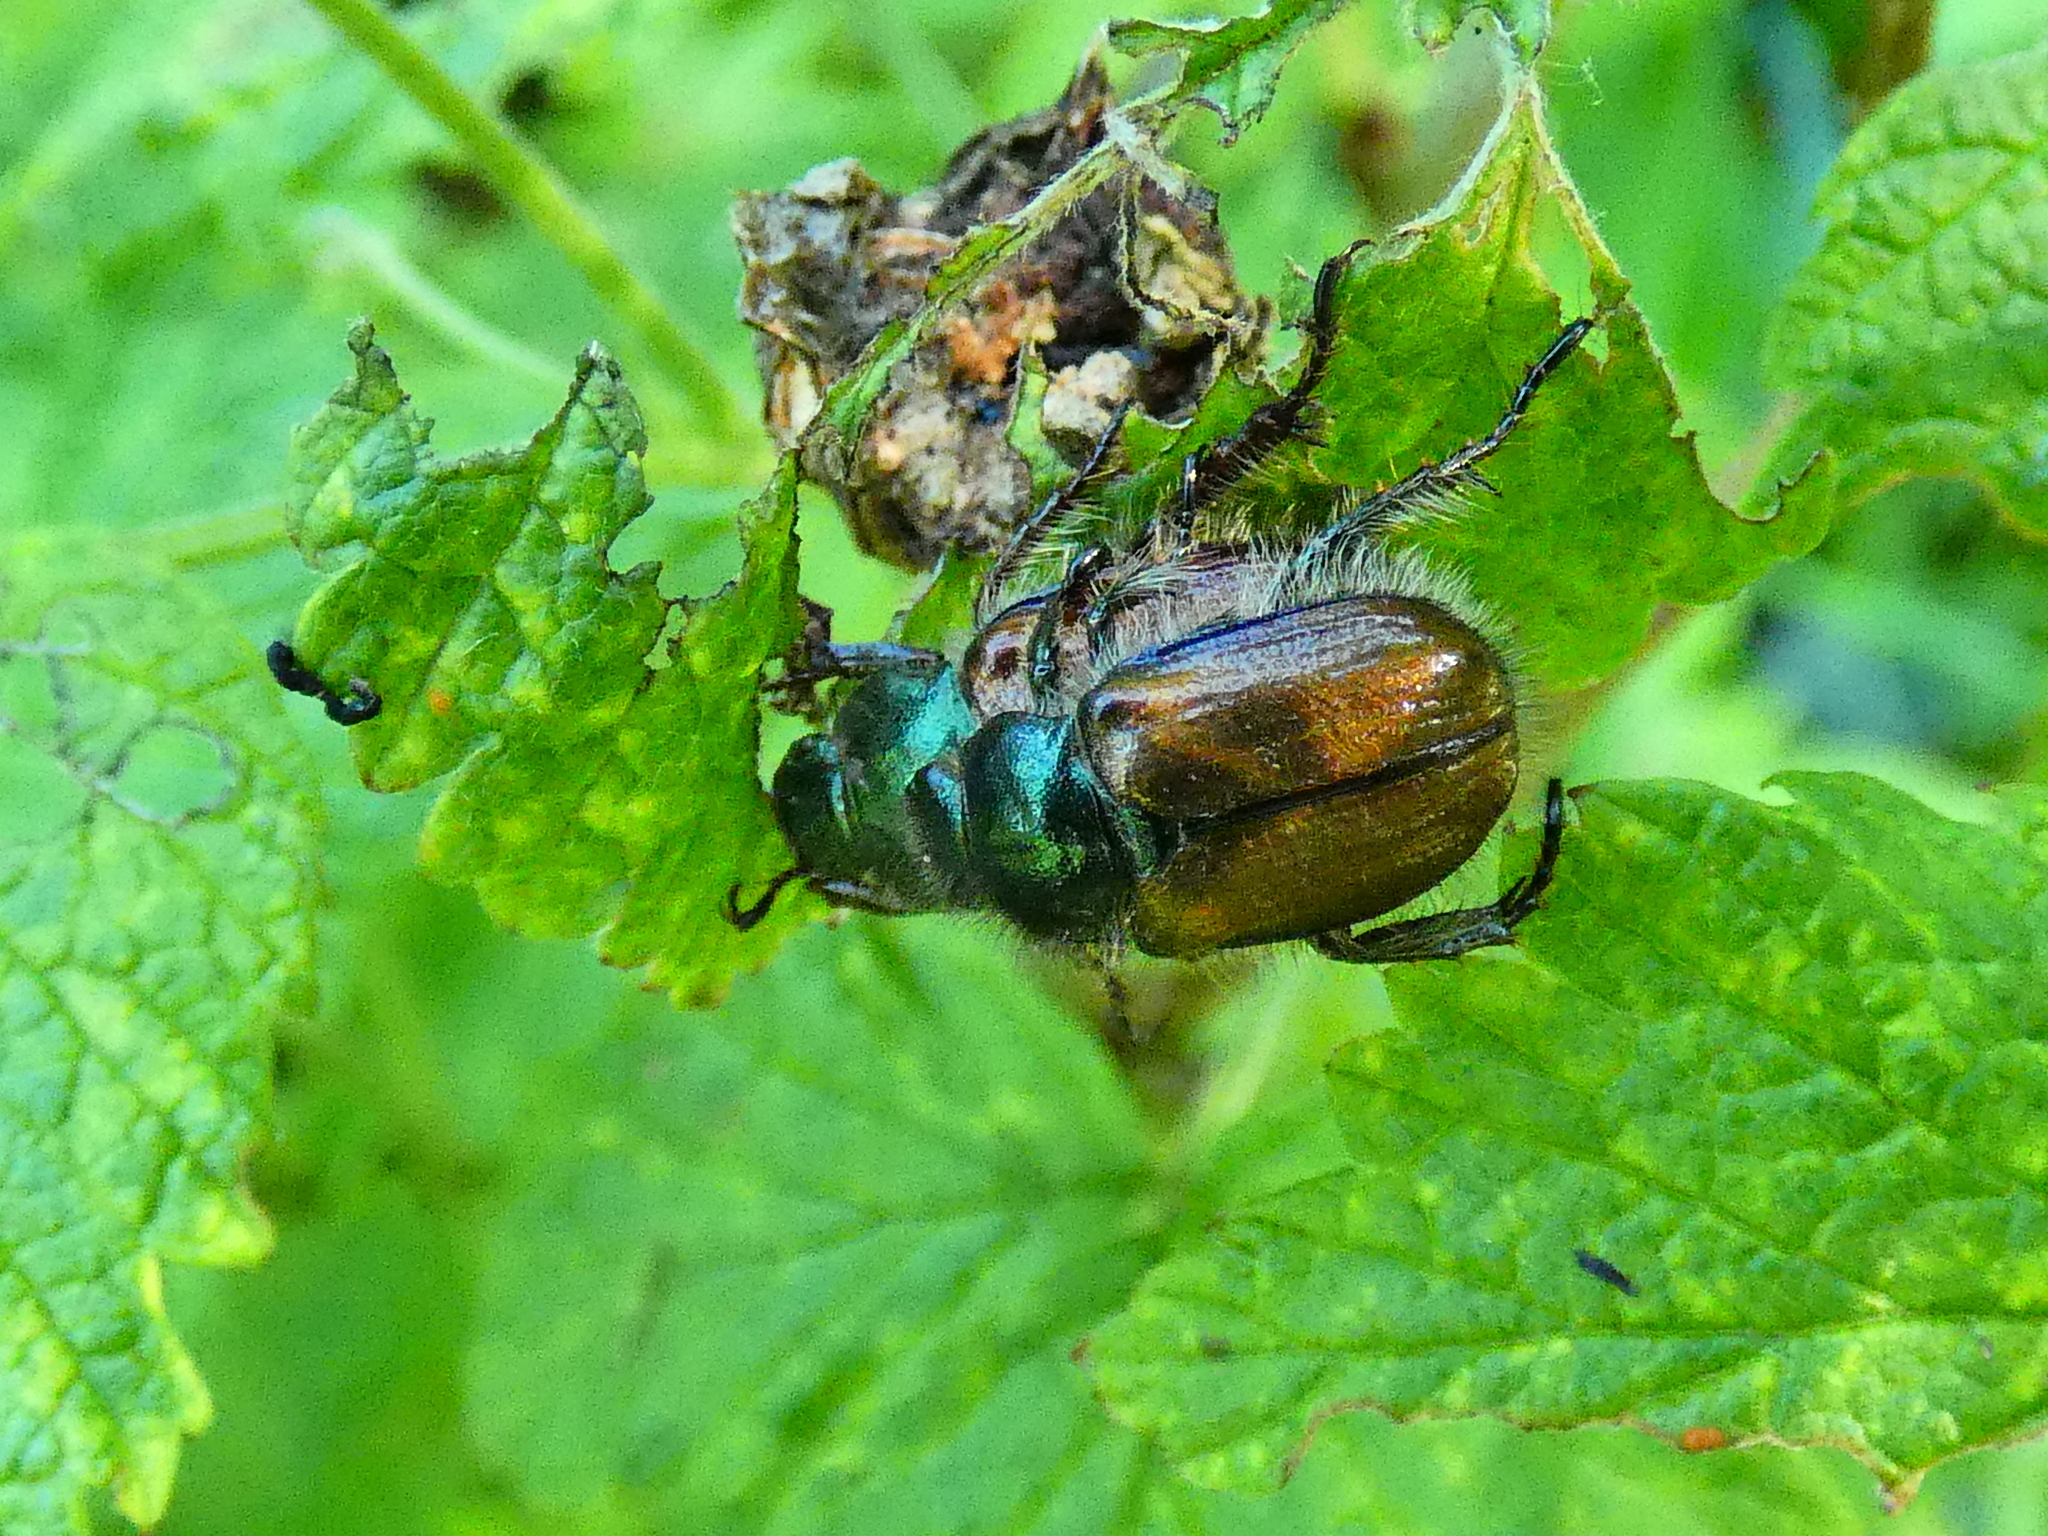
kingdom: Animalia
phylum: Arthropoda
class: Insecta
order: Coleoptera
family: Scarabaeidae
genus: Phyllopertha
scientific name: Phyllopertha horticola
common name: Garden chafer
